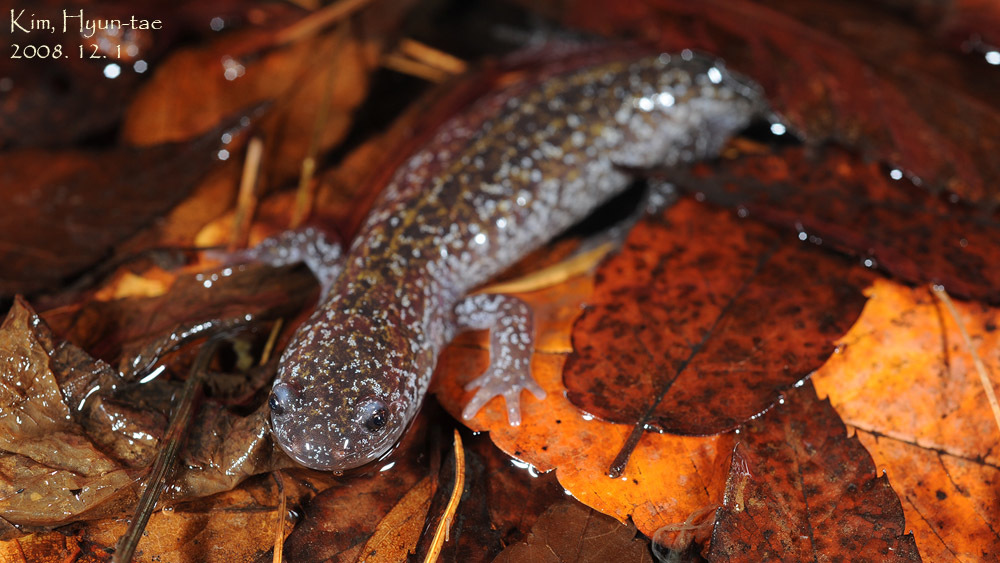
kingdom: Animalia
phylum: Chordata
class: Amphibia
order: Caudata
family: Hynobiidae
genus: Hynobius
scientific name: Hynobius leechii
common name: Gensan salamander
